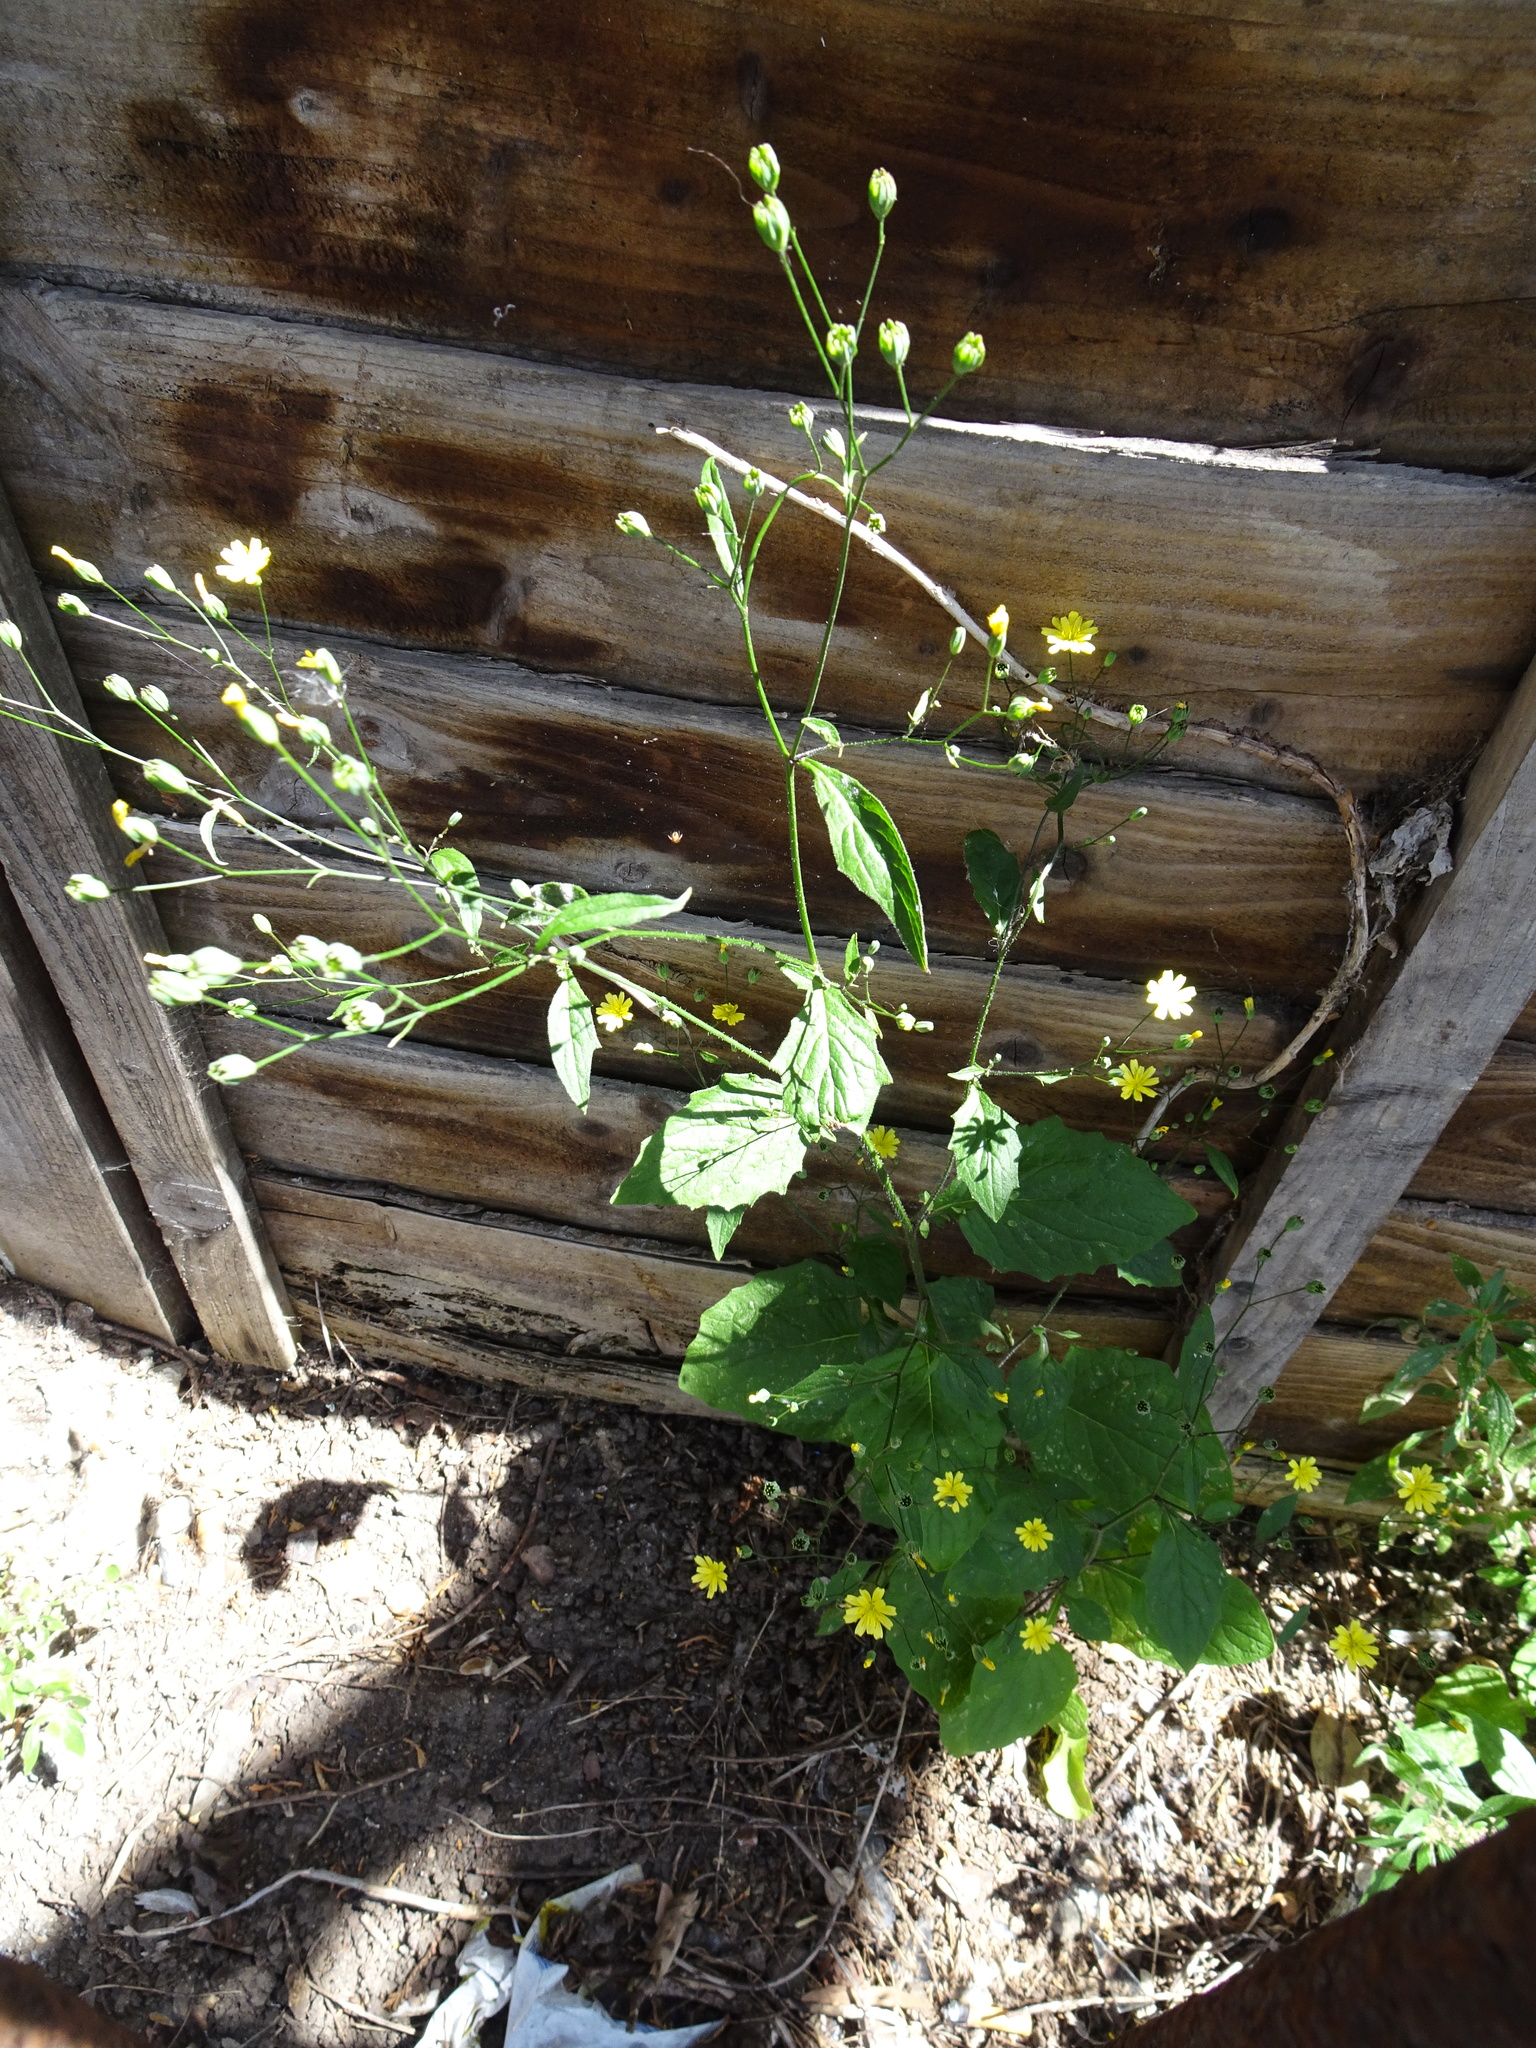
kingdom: Plantae
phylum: Tracheophyta
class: Magnoliopsida
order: Asterales
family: Asteraceae
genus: Lapsana
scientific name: Lapsana communis
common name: Nipplewort
